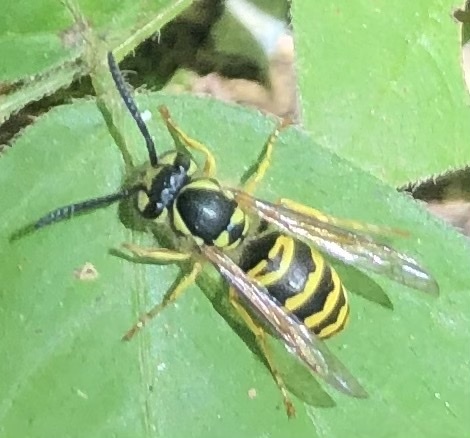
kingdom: Animalia
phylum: Arthropoda
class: Insecta
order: Hymenoptera
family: Vespidae
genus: Vespula
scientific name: Vespula maculifrons
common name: Eastern yellowjacket
